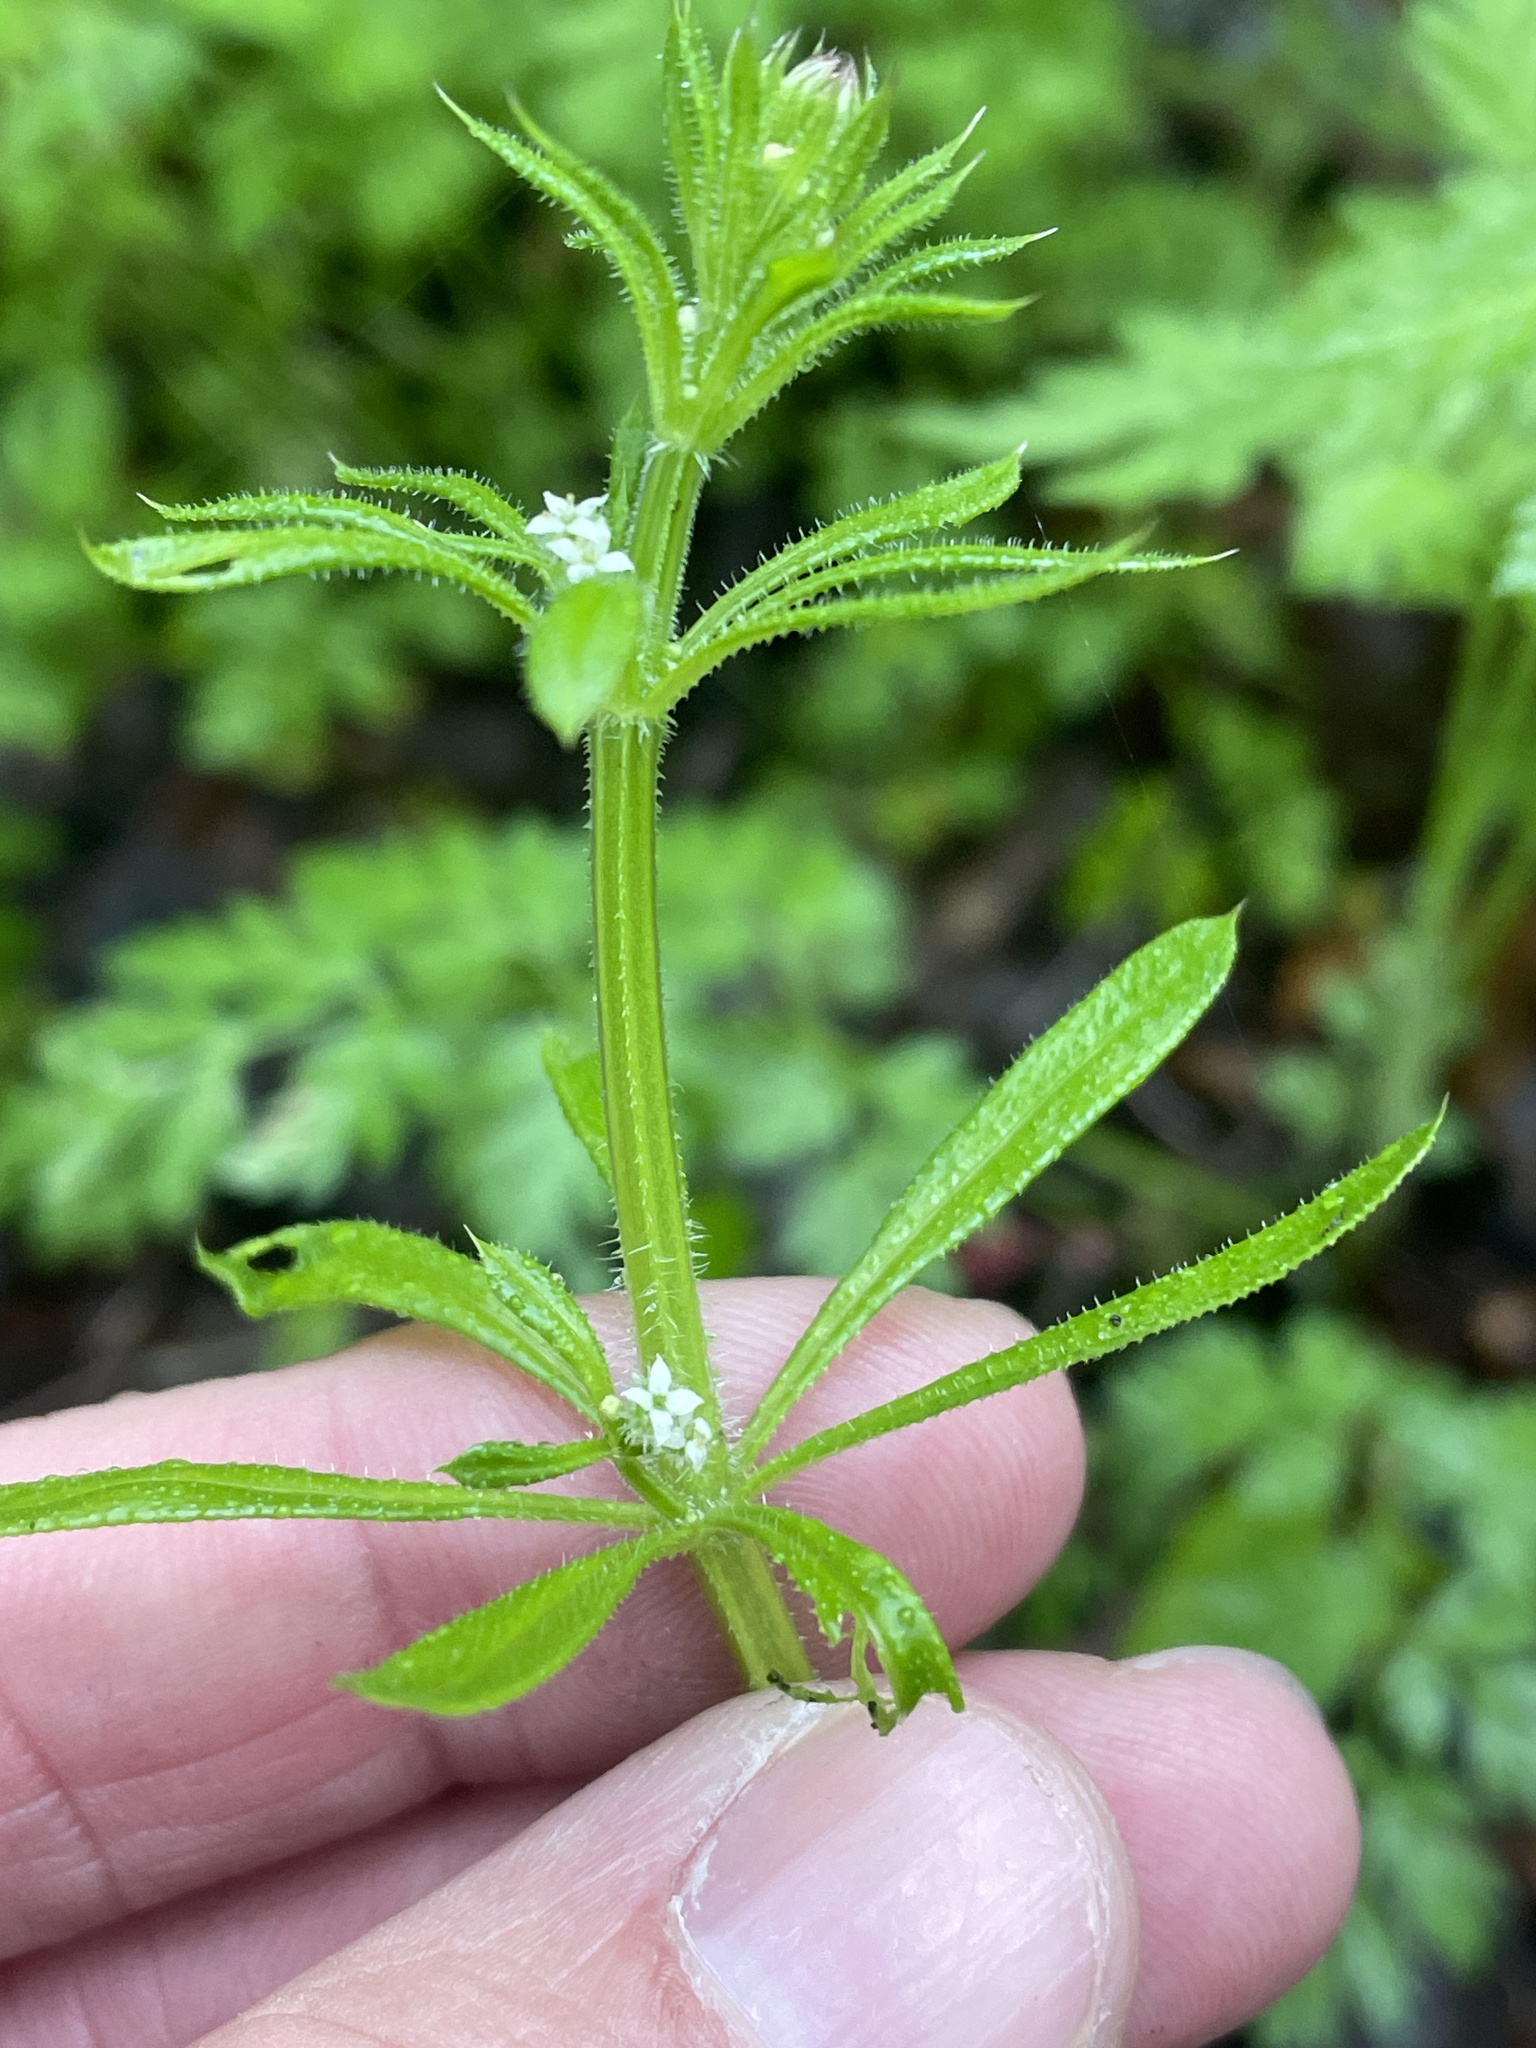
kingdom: Plantae
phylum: Tracheophyta
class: Magnoliopsida
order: Gentianales
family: Rubiaceae
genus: Galium
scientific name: Galium aparine
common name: Cleavers
